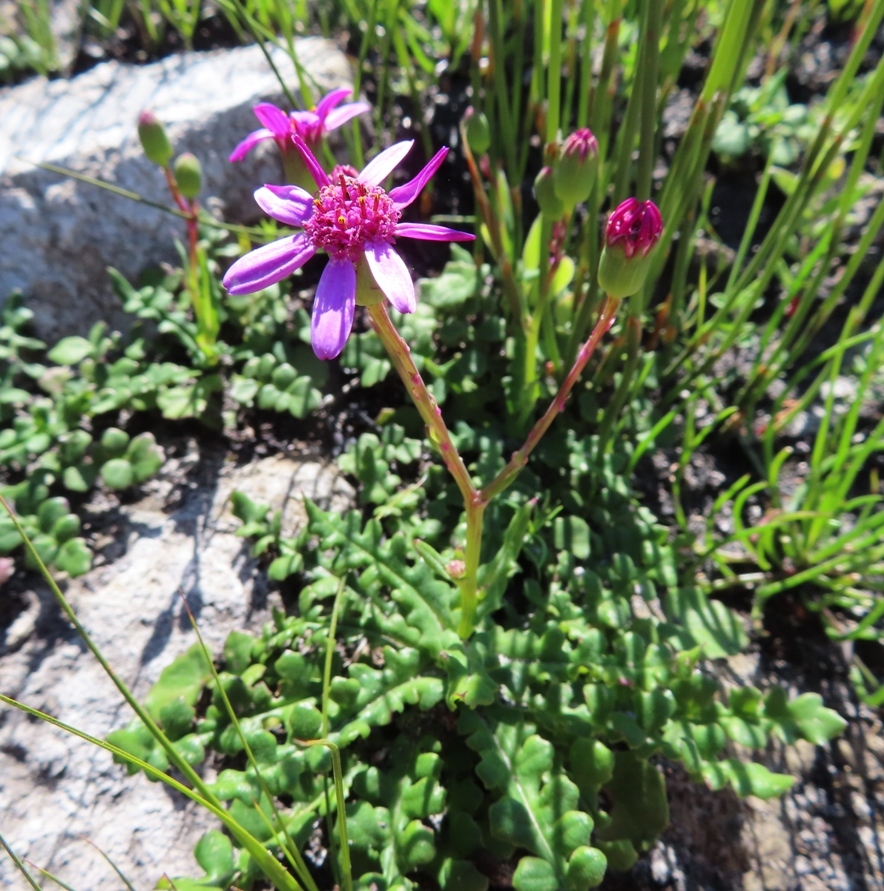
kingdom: Plantae
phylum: Tracheophyta
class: Magnoliopsida
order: Asterales
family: Asteraceae
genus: Senecio
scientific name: Senecio cymbalariifolius
